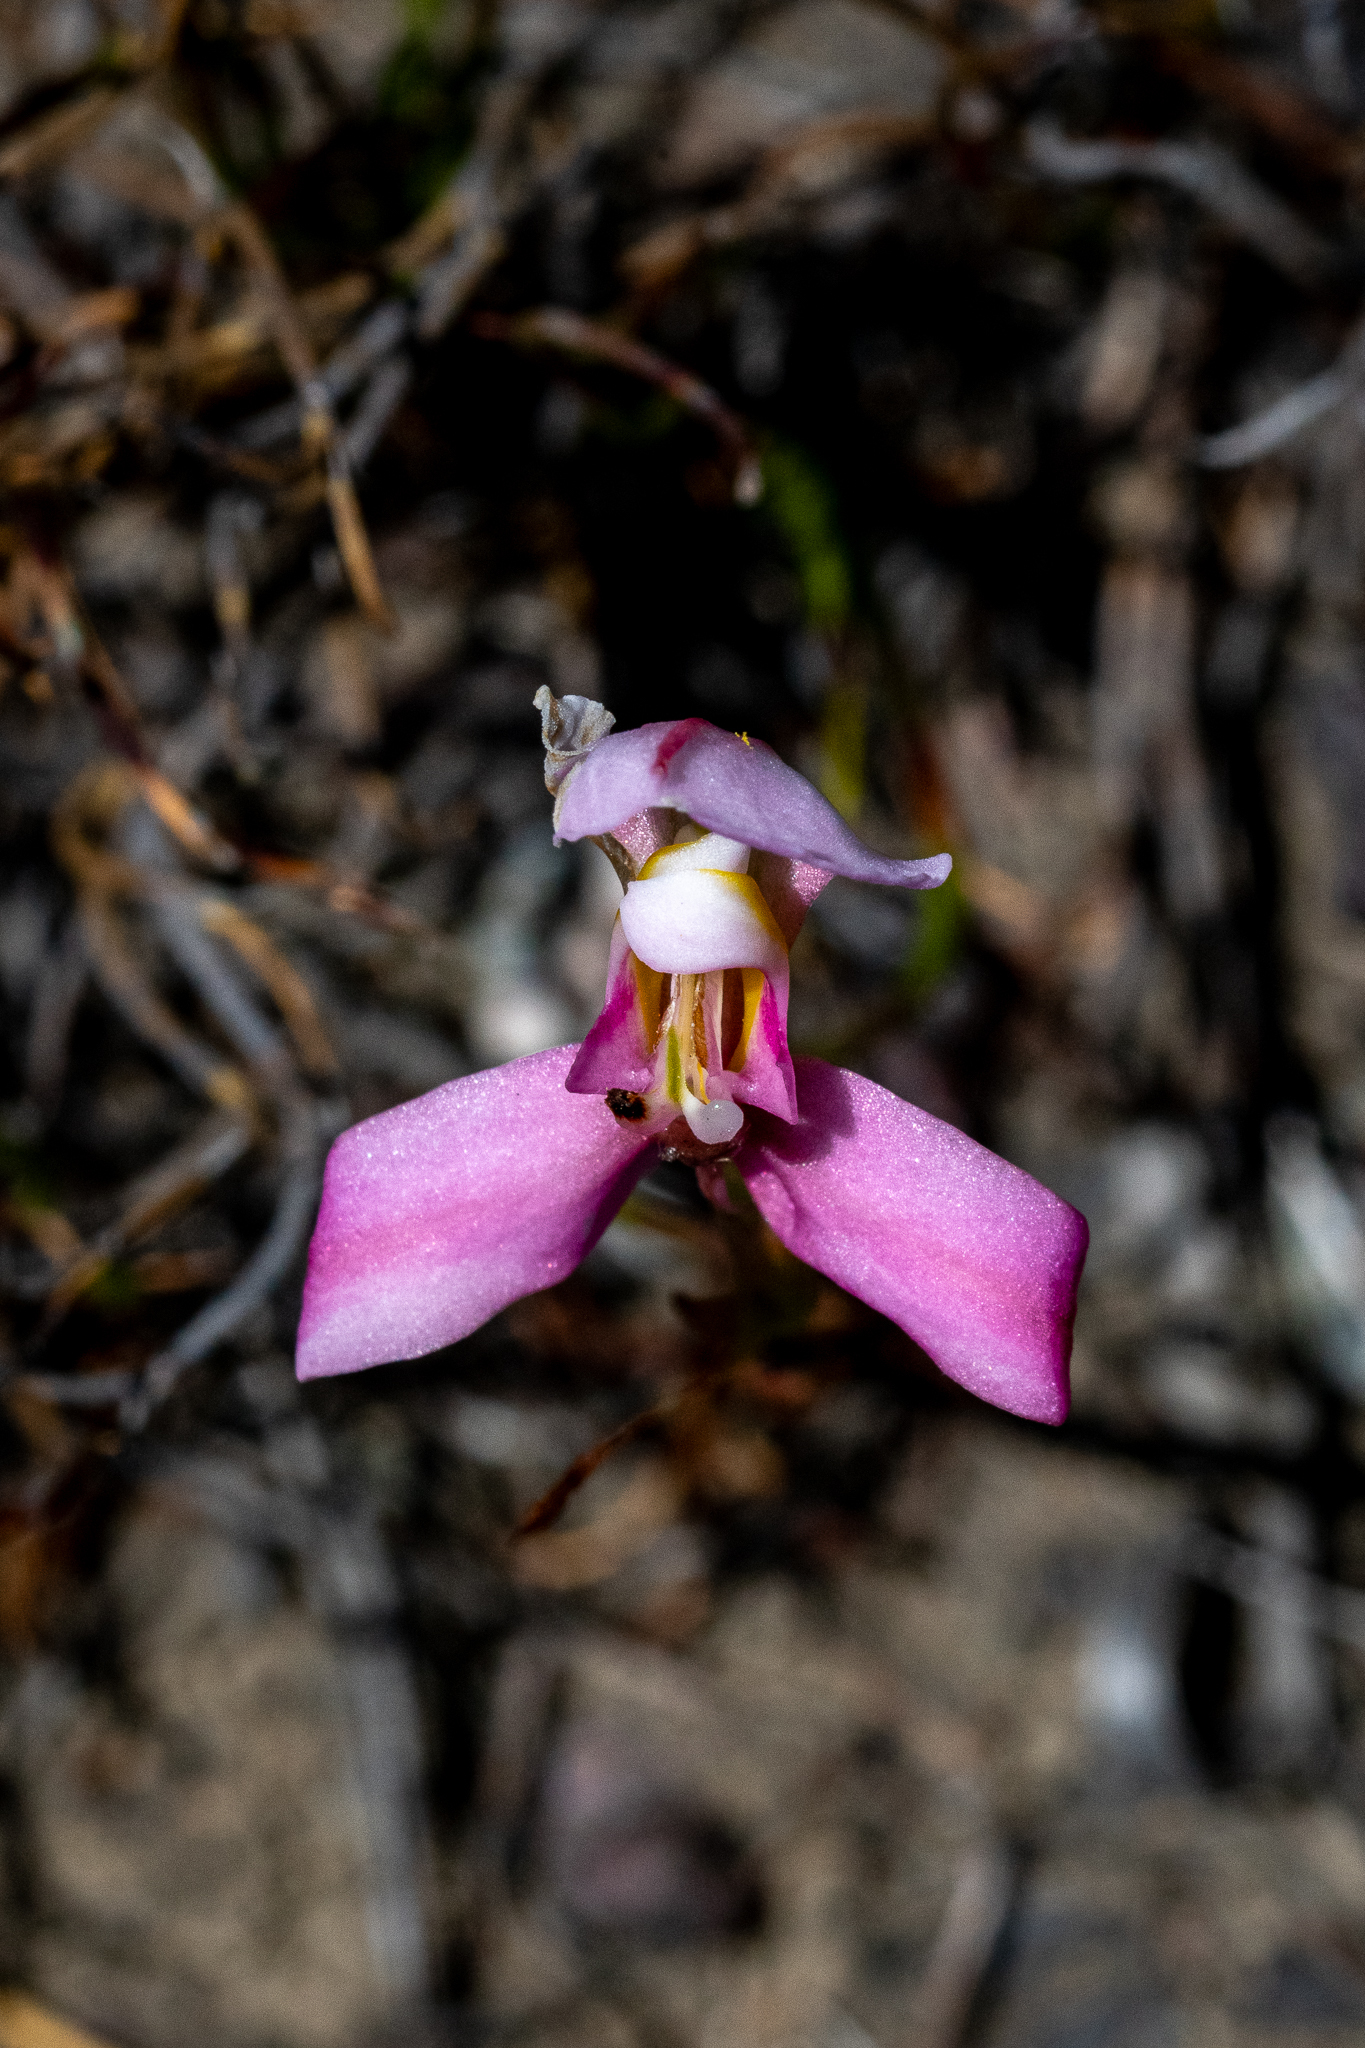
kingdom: Plantae
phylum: Tracheophyta
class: Liliopsida
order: Asparagales
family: Orchidaceae
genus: Disa
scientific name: Disa filicornis
